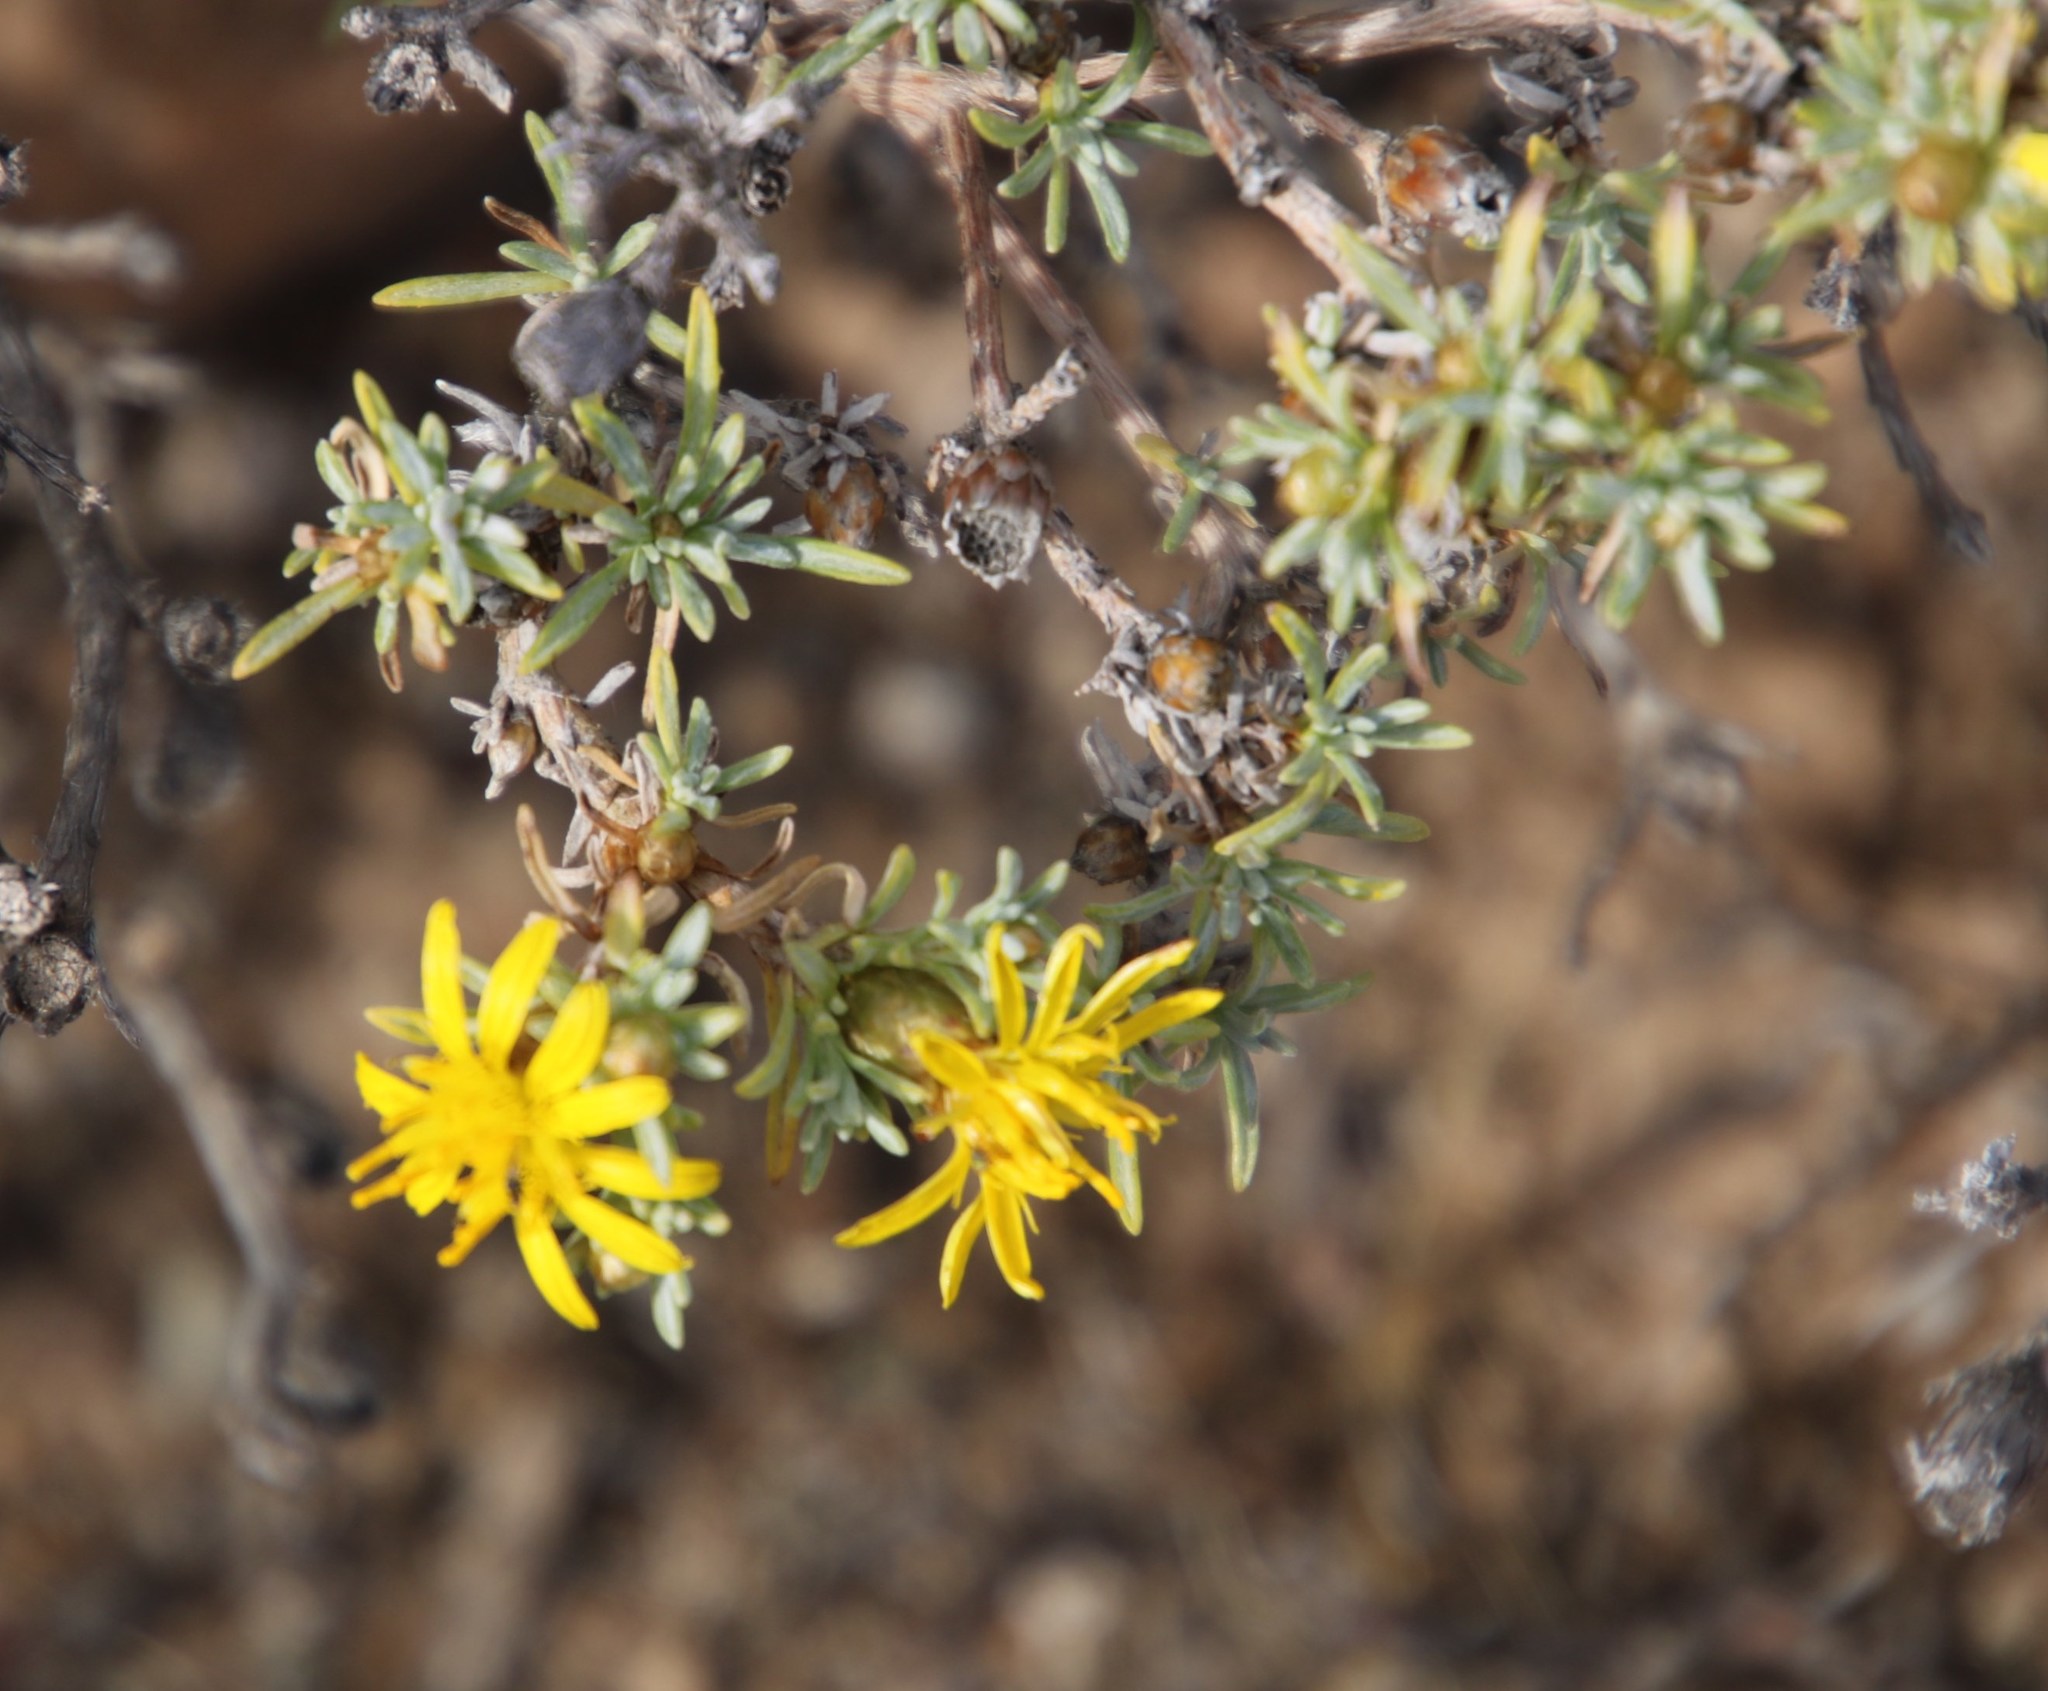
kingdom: Plantae
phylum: Tracheophyta
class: Magnoliopsida
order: Asterales
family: Asteraceae
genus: Oedera
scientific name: Oedera humilis
